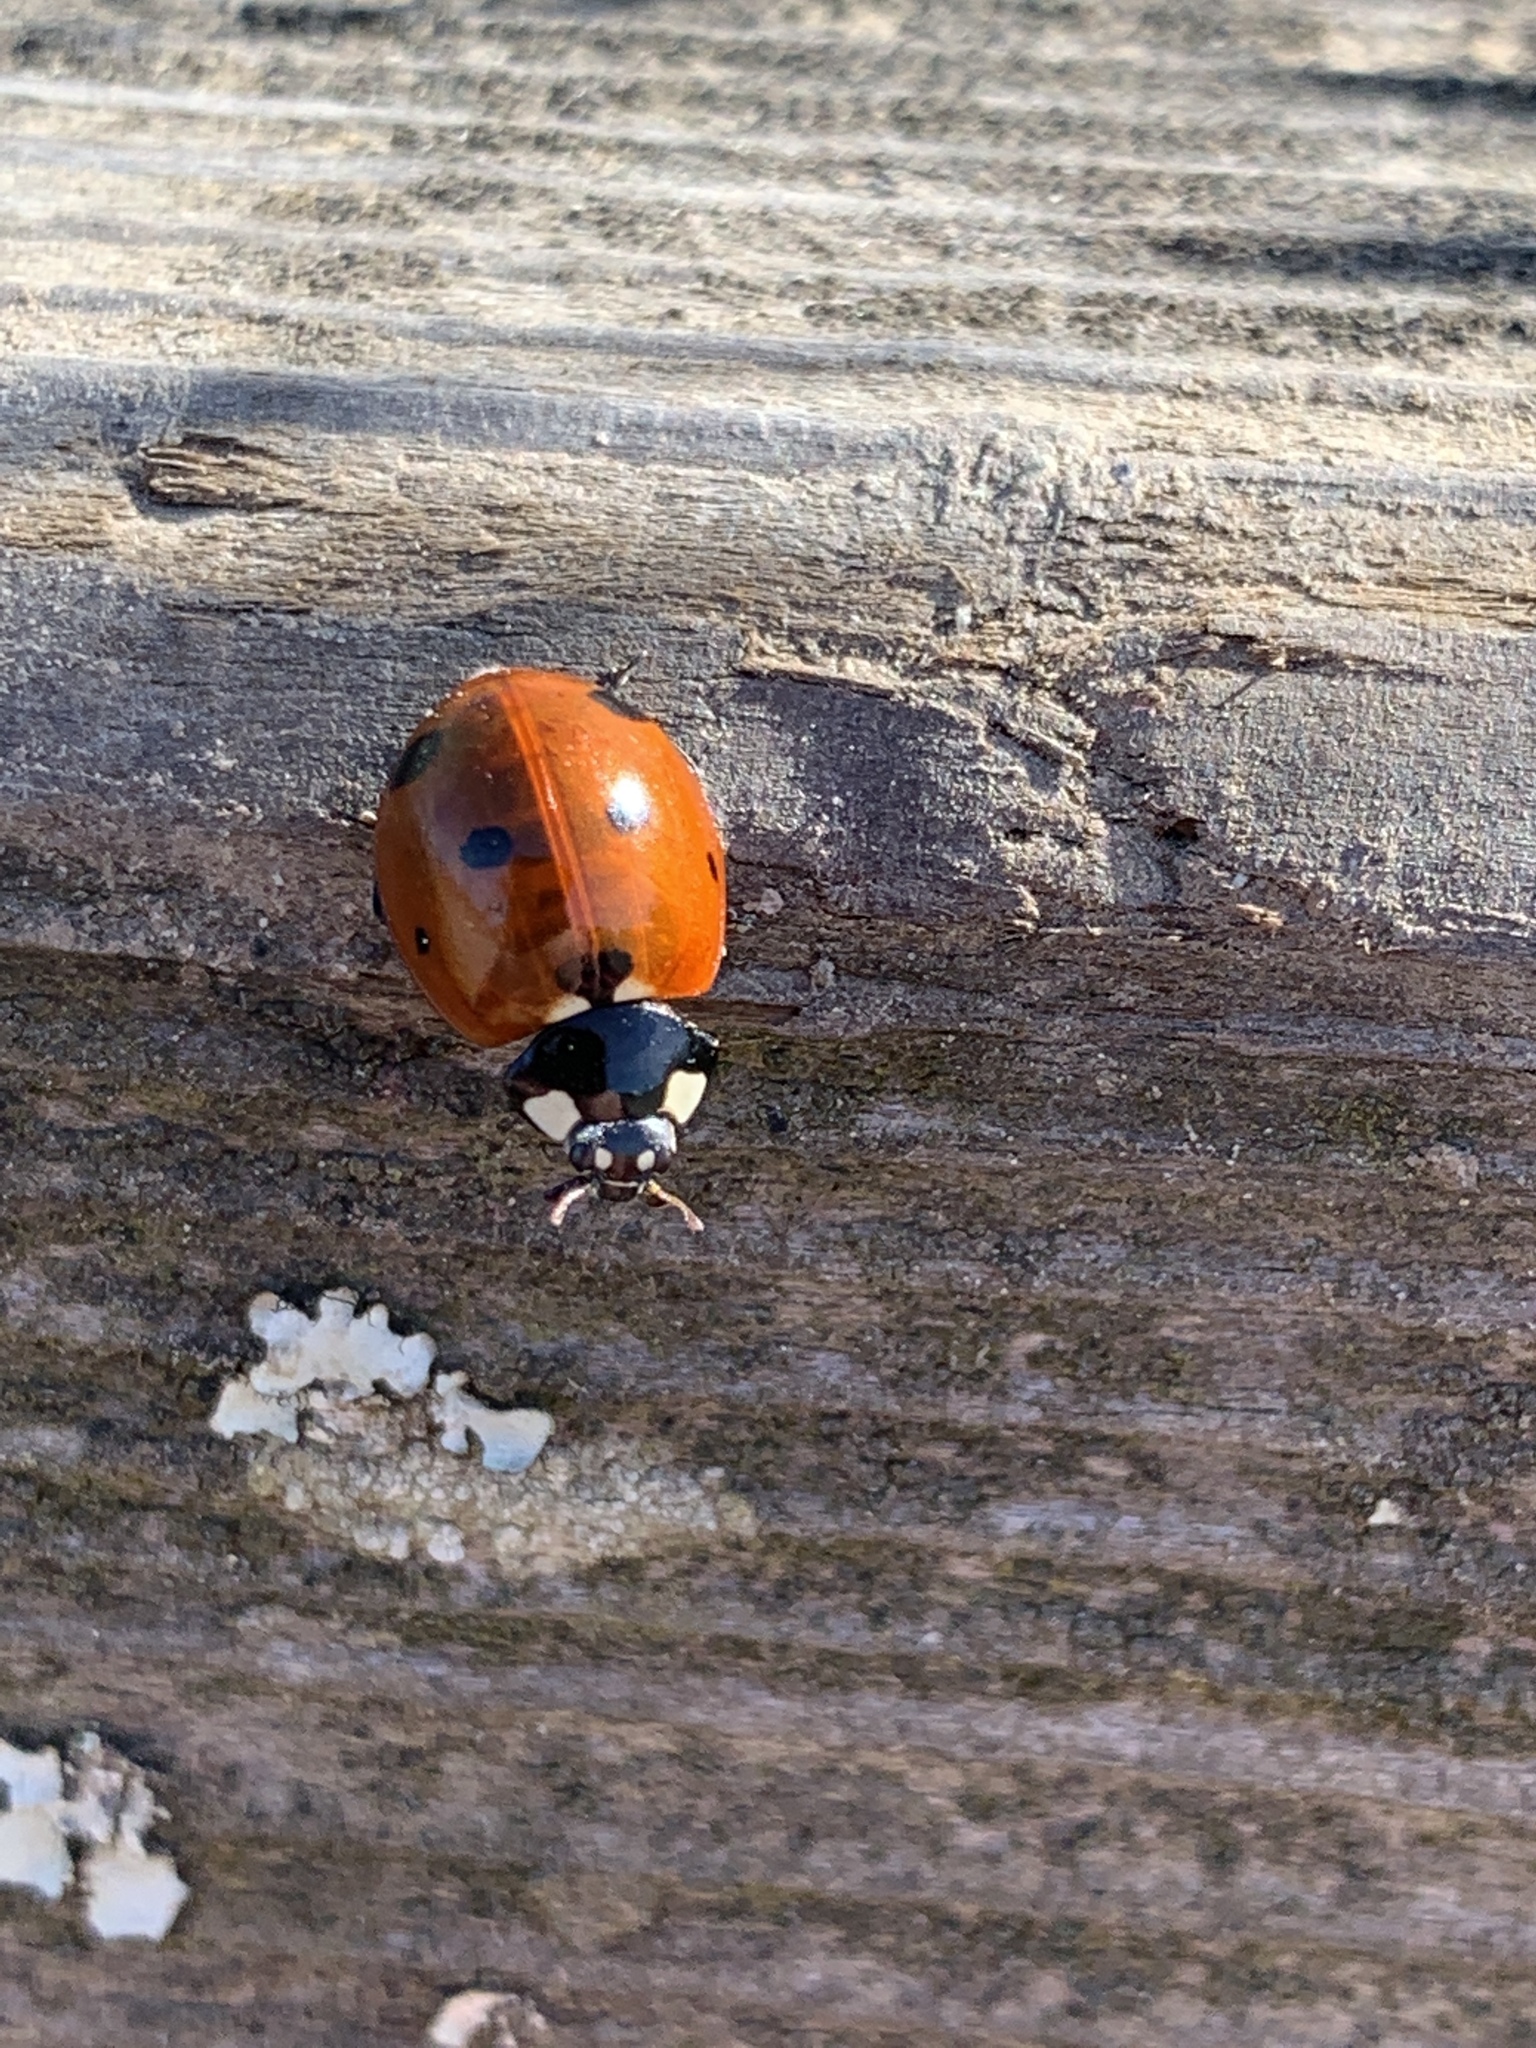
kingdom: Animalia
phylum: Arthropoda
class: Insecta
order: Coleoptera
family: Coccinellidae
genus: Coccinella
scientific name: Coccinella septempunctata
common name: Sevenspotted lady beetle
